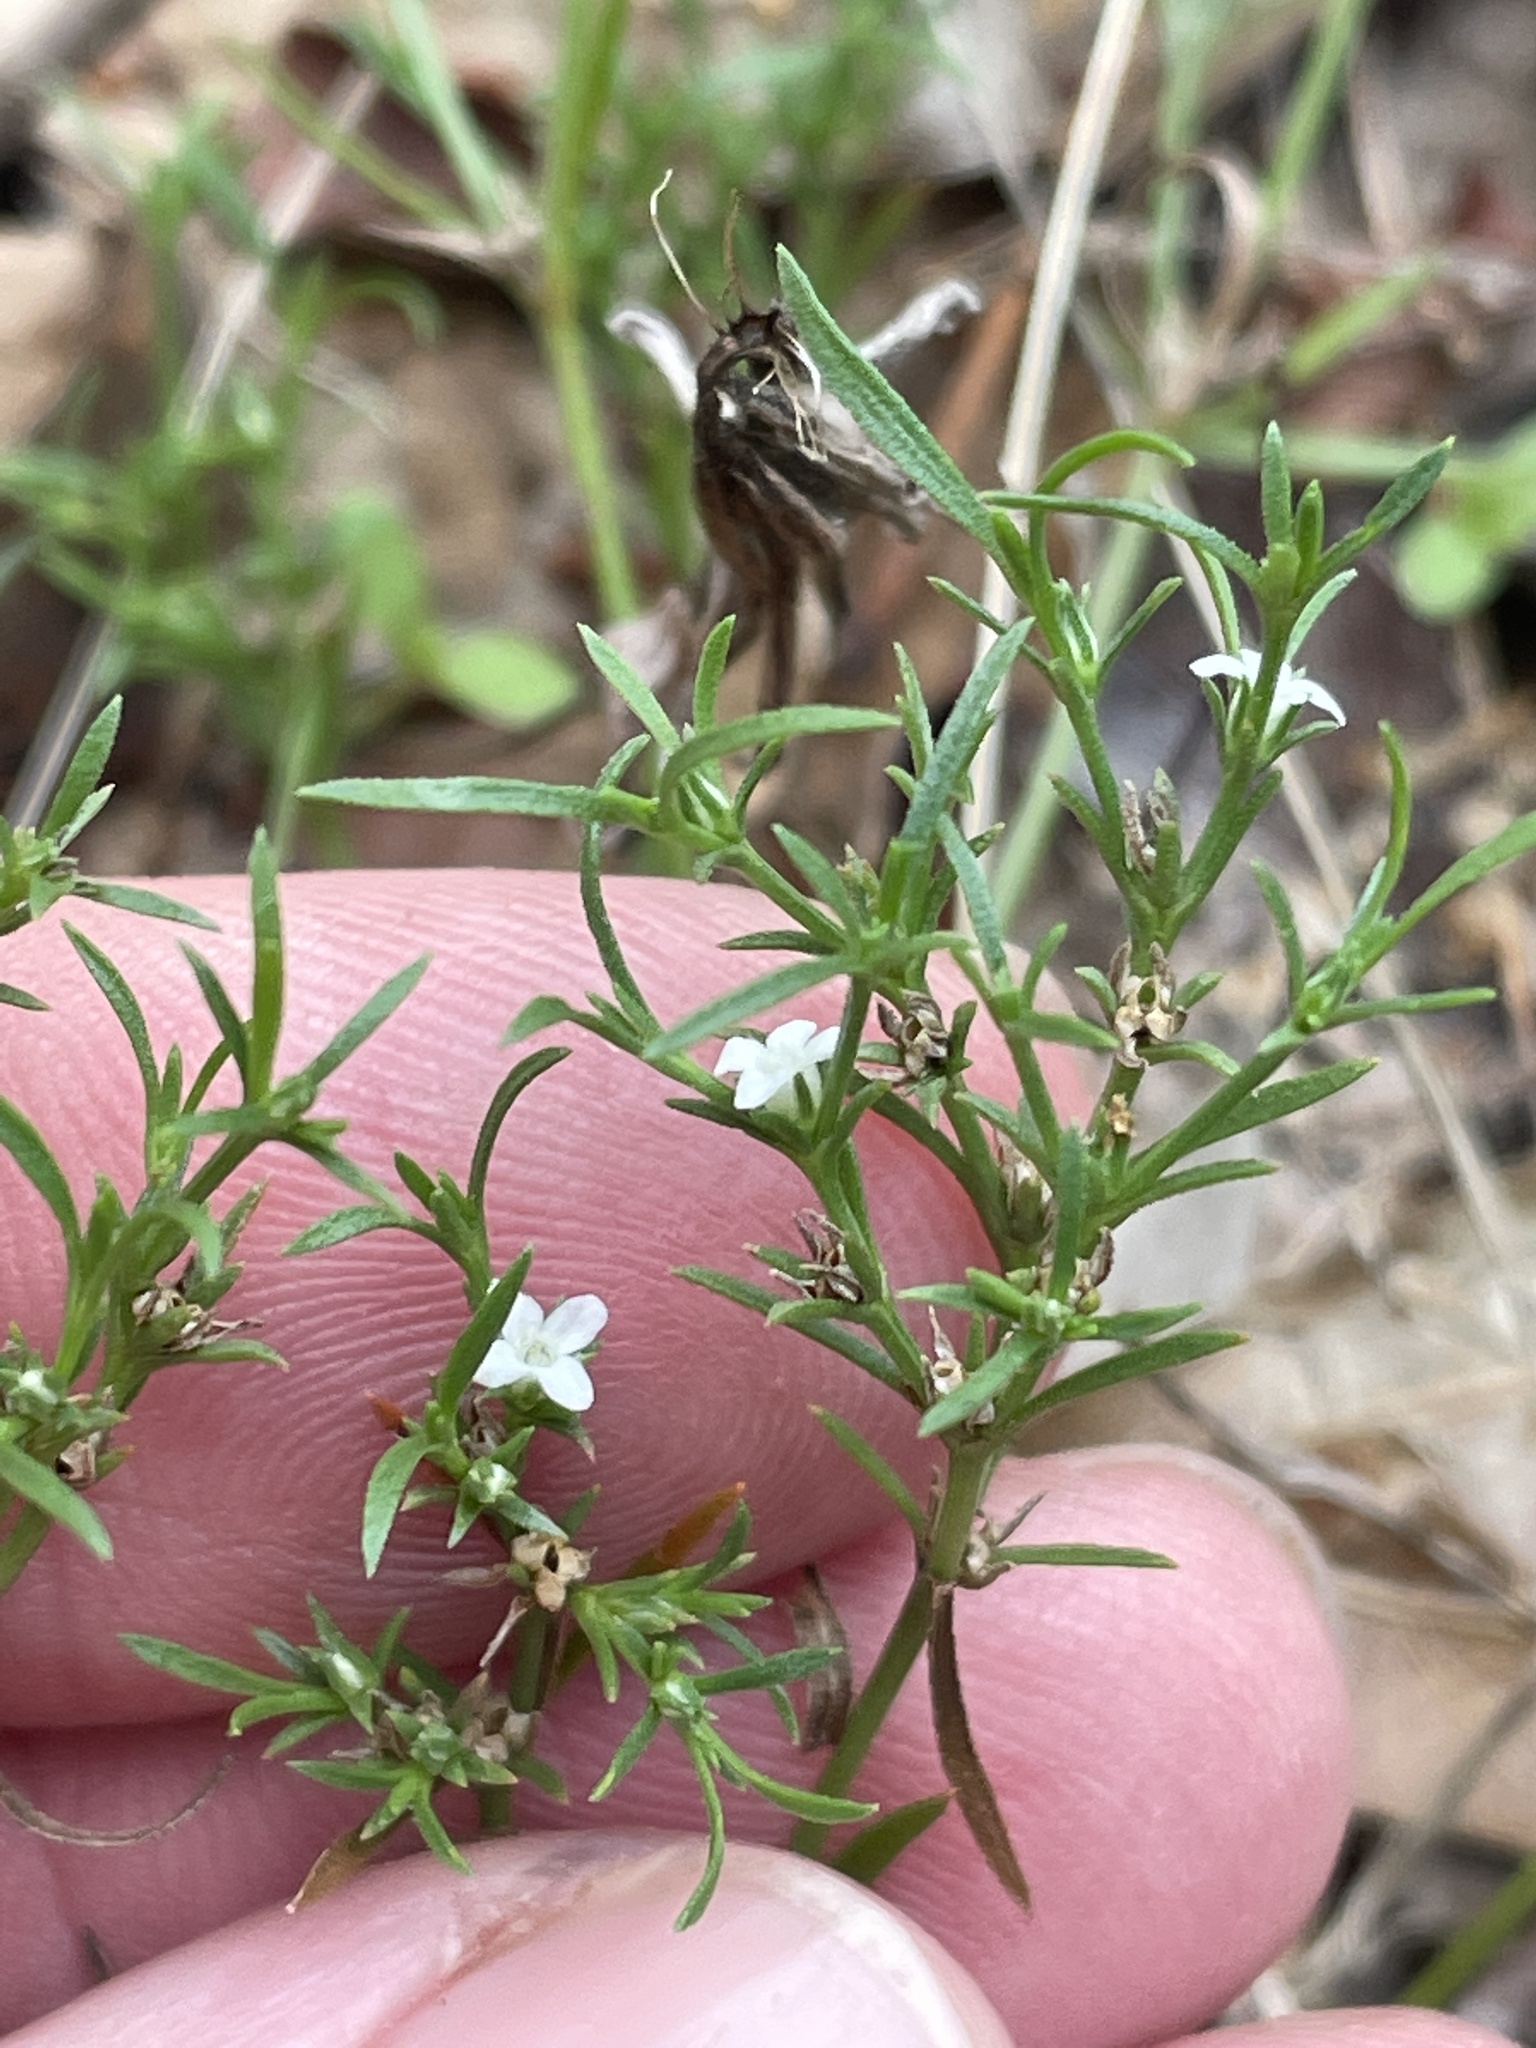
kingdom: Plantae
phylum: Tracheophyta
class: Magnoliopsida
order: Lamiales
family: Tetrachondraceae
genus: Polypremum
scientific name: Polypremum procumbens
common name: Juniper-leaf
